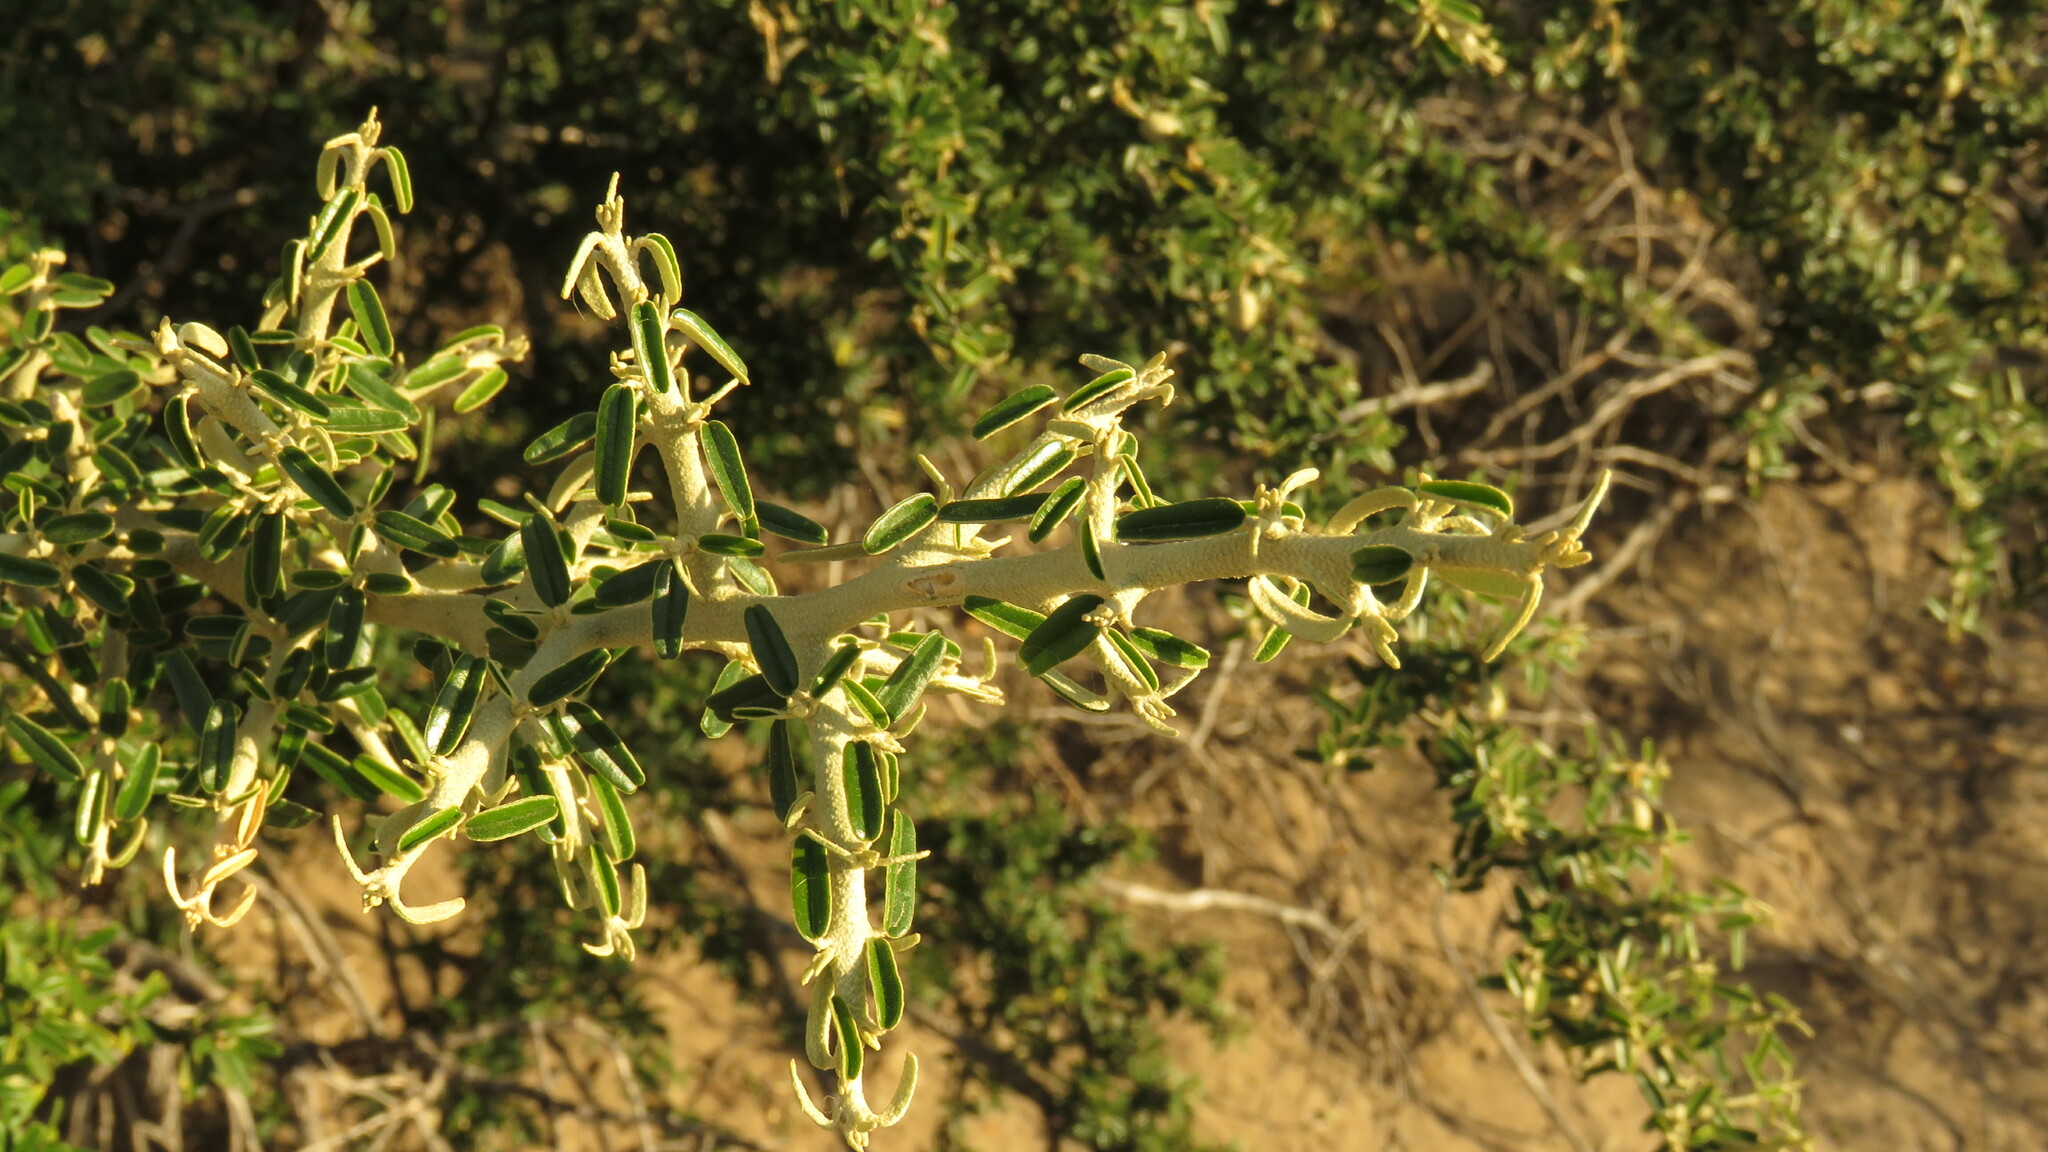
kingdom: Plantae
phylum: Tracheophyta
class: Magnoliopsida
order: Brassicales
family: Capparaceae
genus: Atamisquea
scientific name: Atamisquea emarginata
